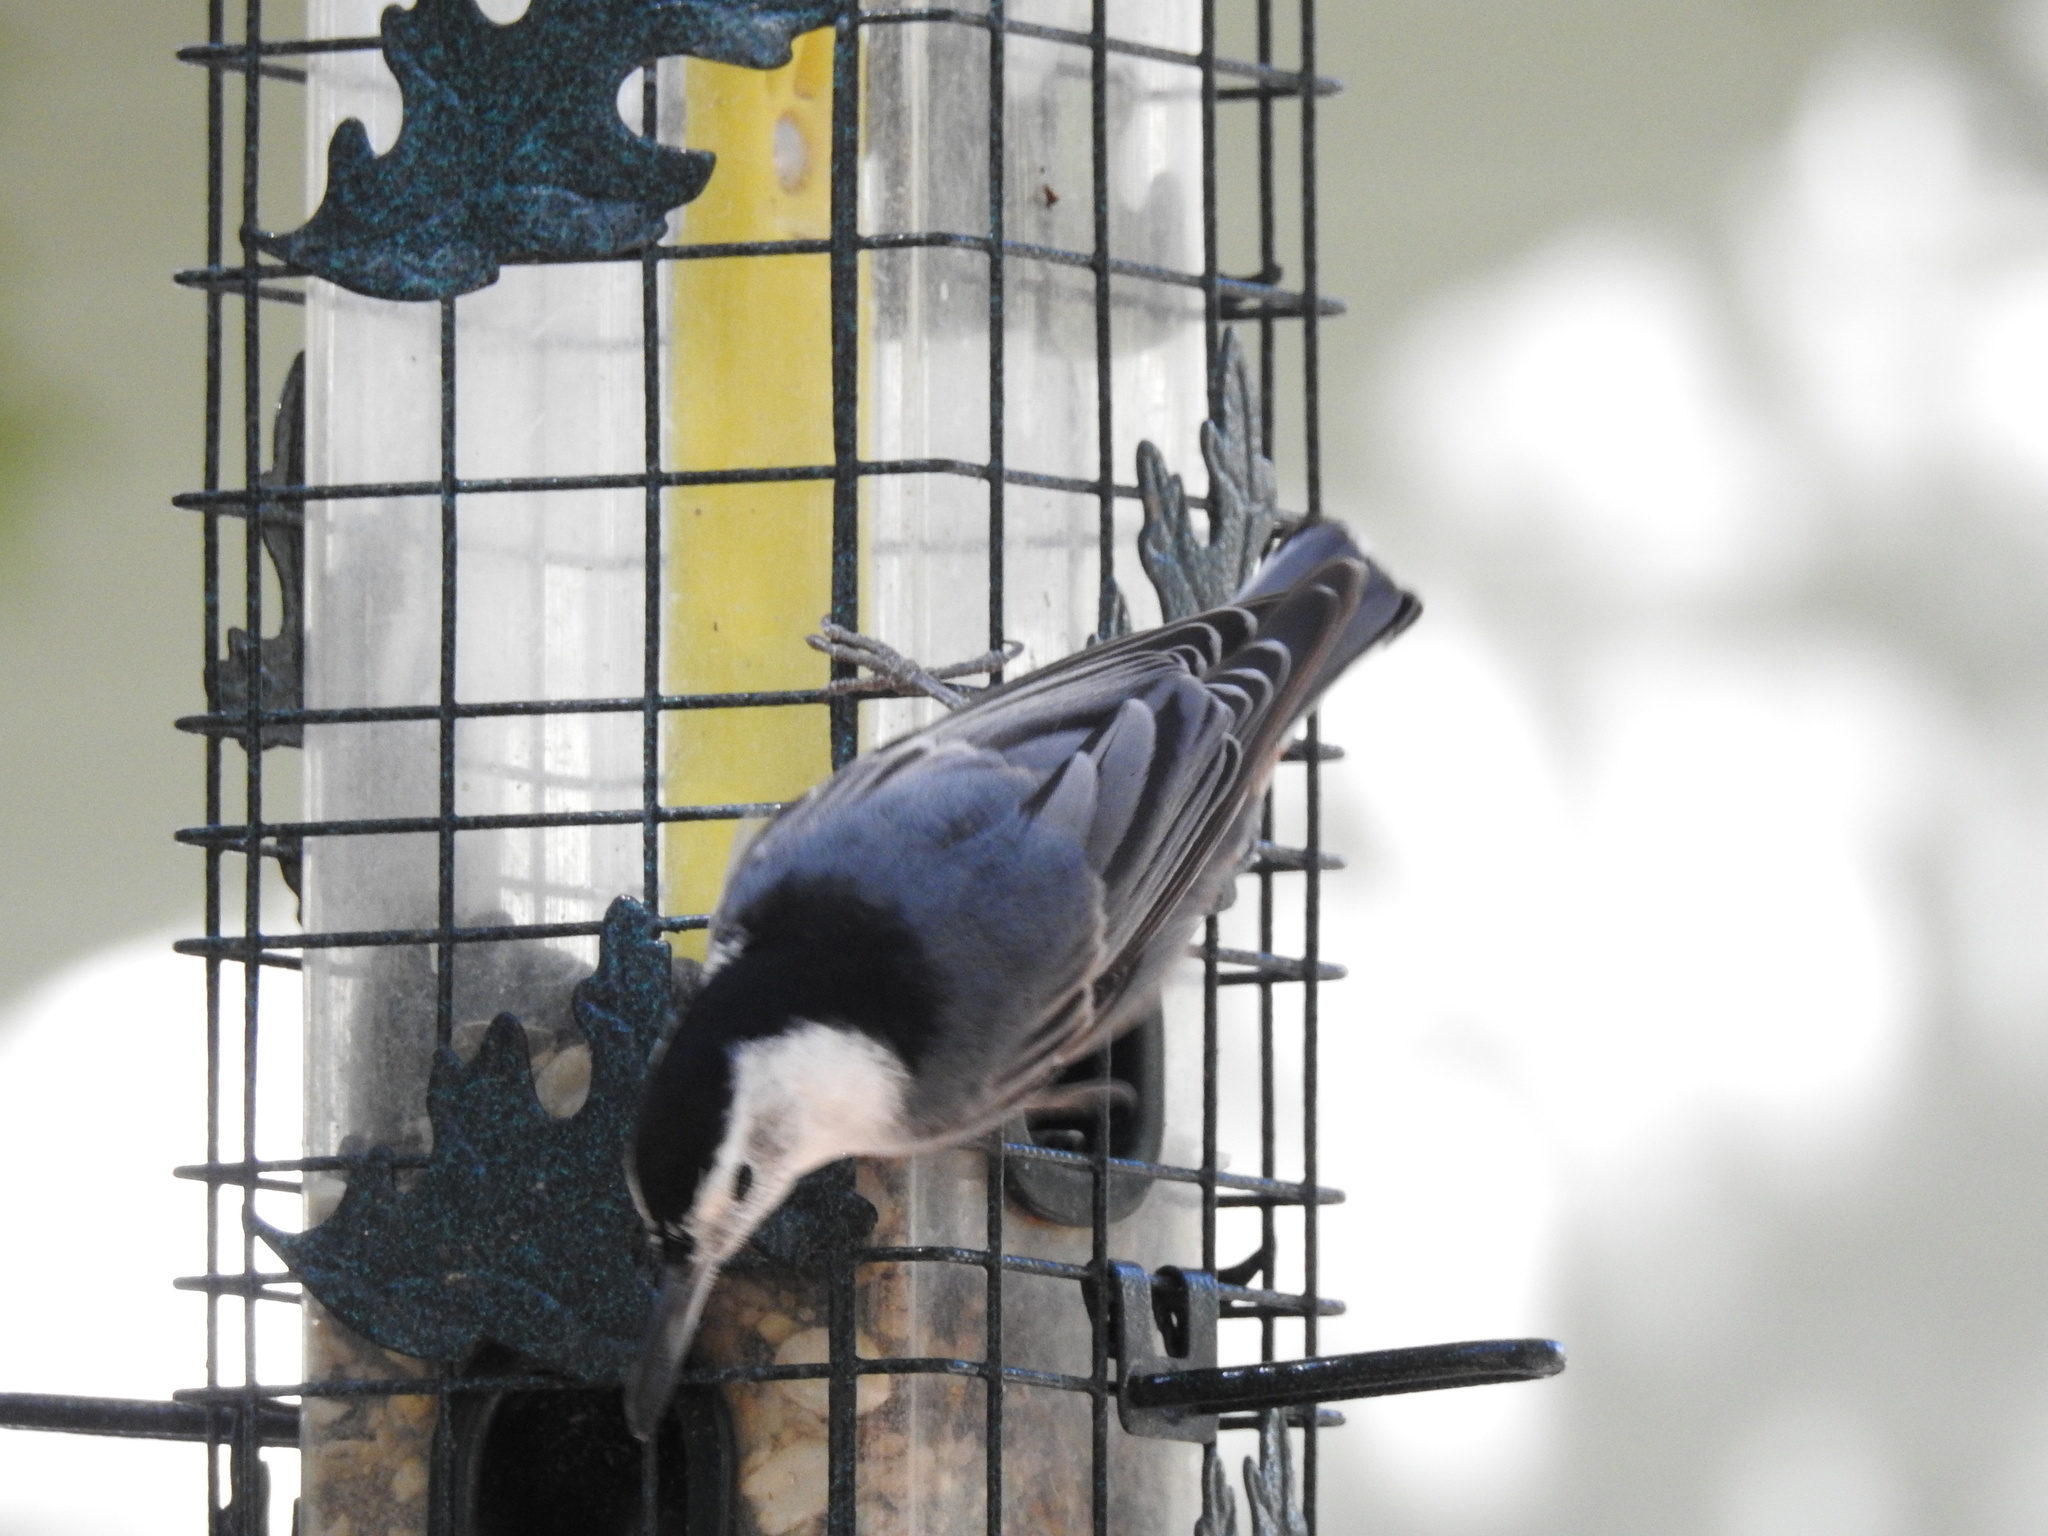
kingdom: Animalia
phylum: Chordata
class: Aves
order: Passeriformes
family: Sittidae
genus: Sitta
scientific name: Sitta carolinensis
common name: White-breasted nuthatch
